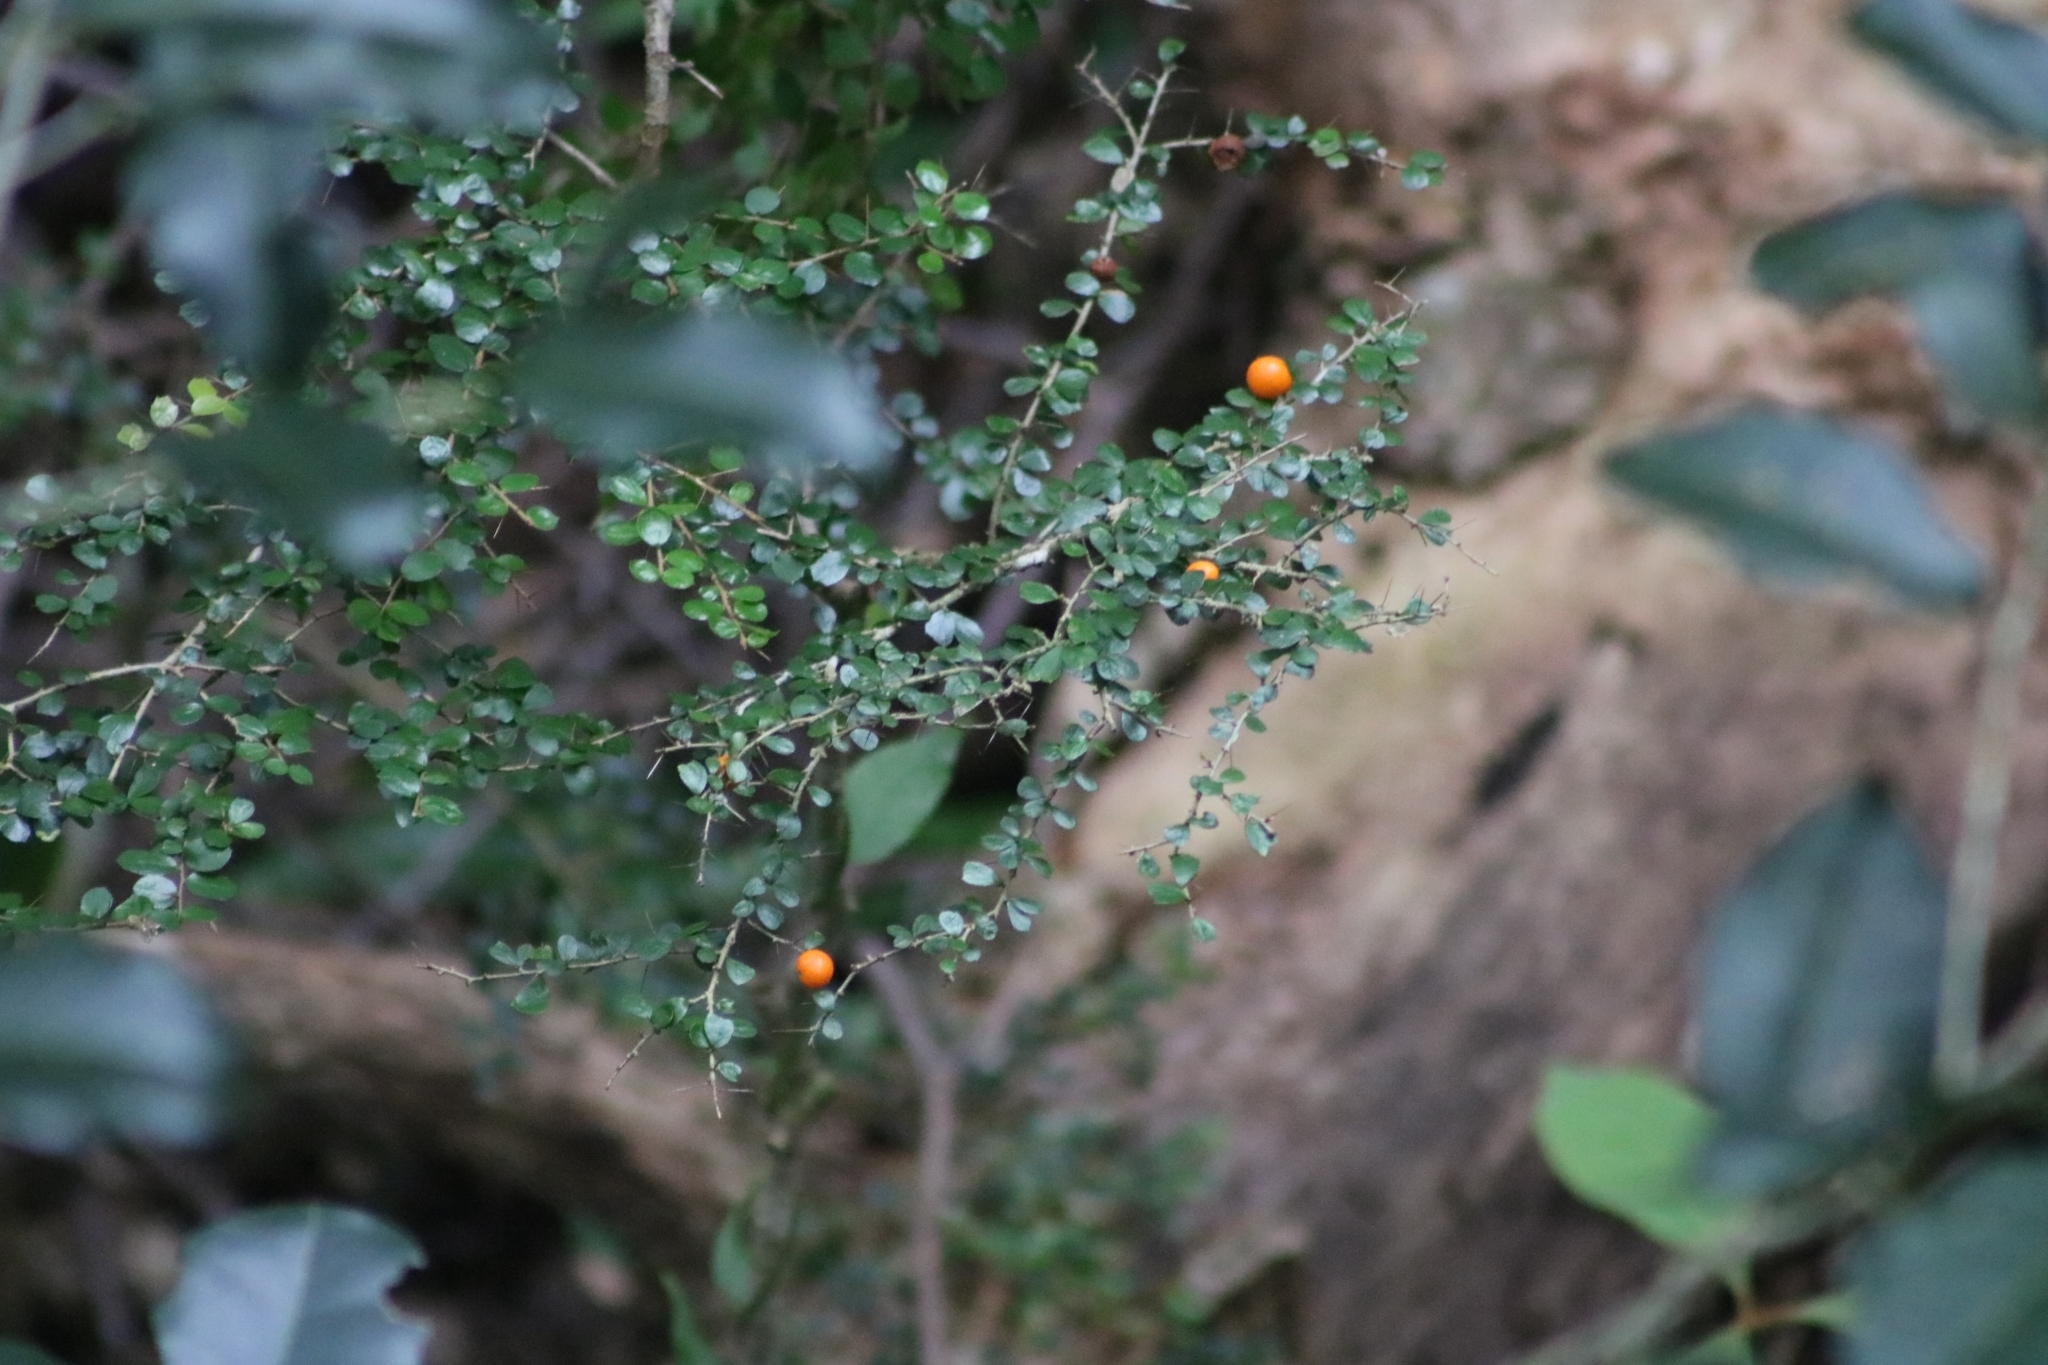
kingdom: Plantae
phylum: Tracheophyta
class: Magnoliopsida
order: Apiales
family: Pittosporaceae
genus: Pittosporum
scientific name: Pittosporum multiflorum
